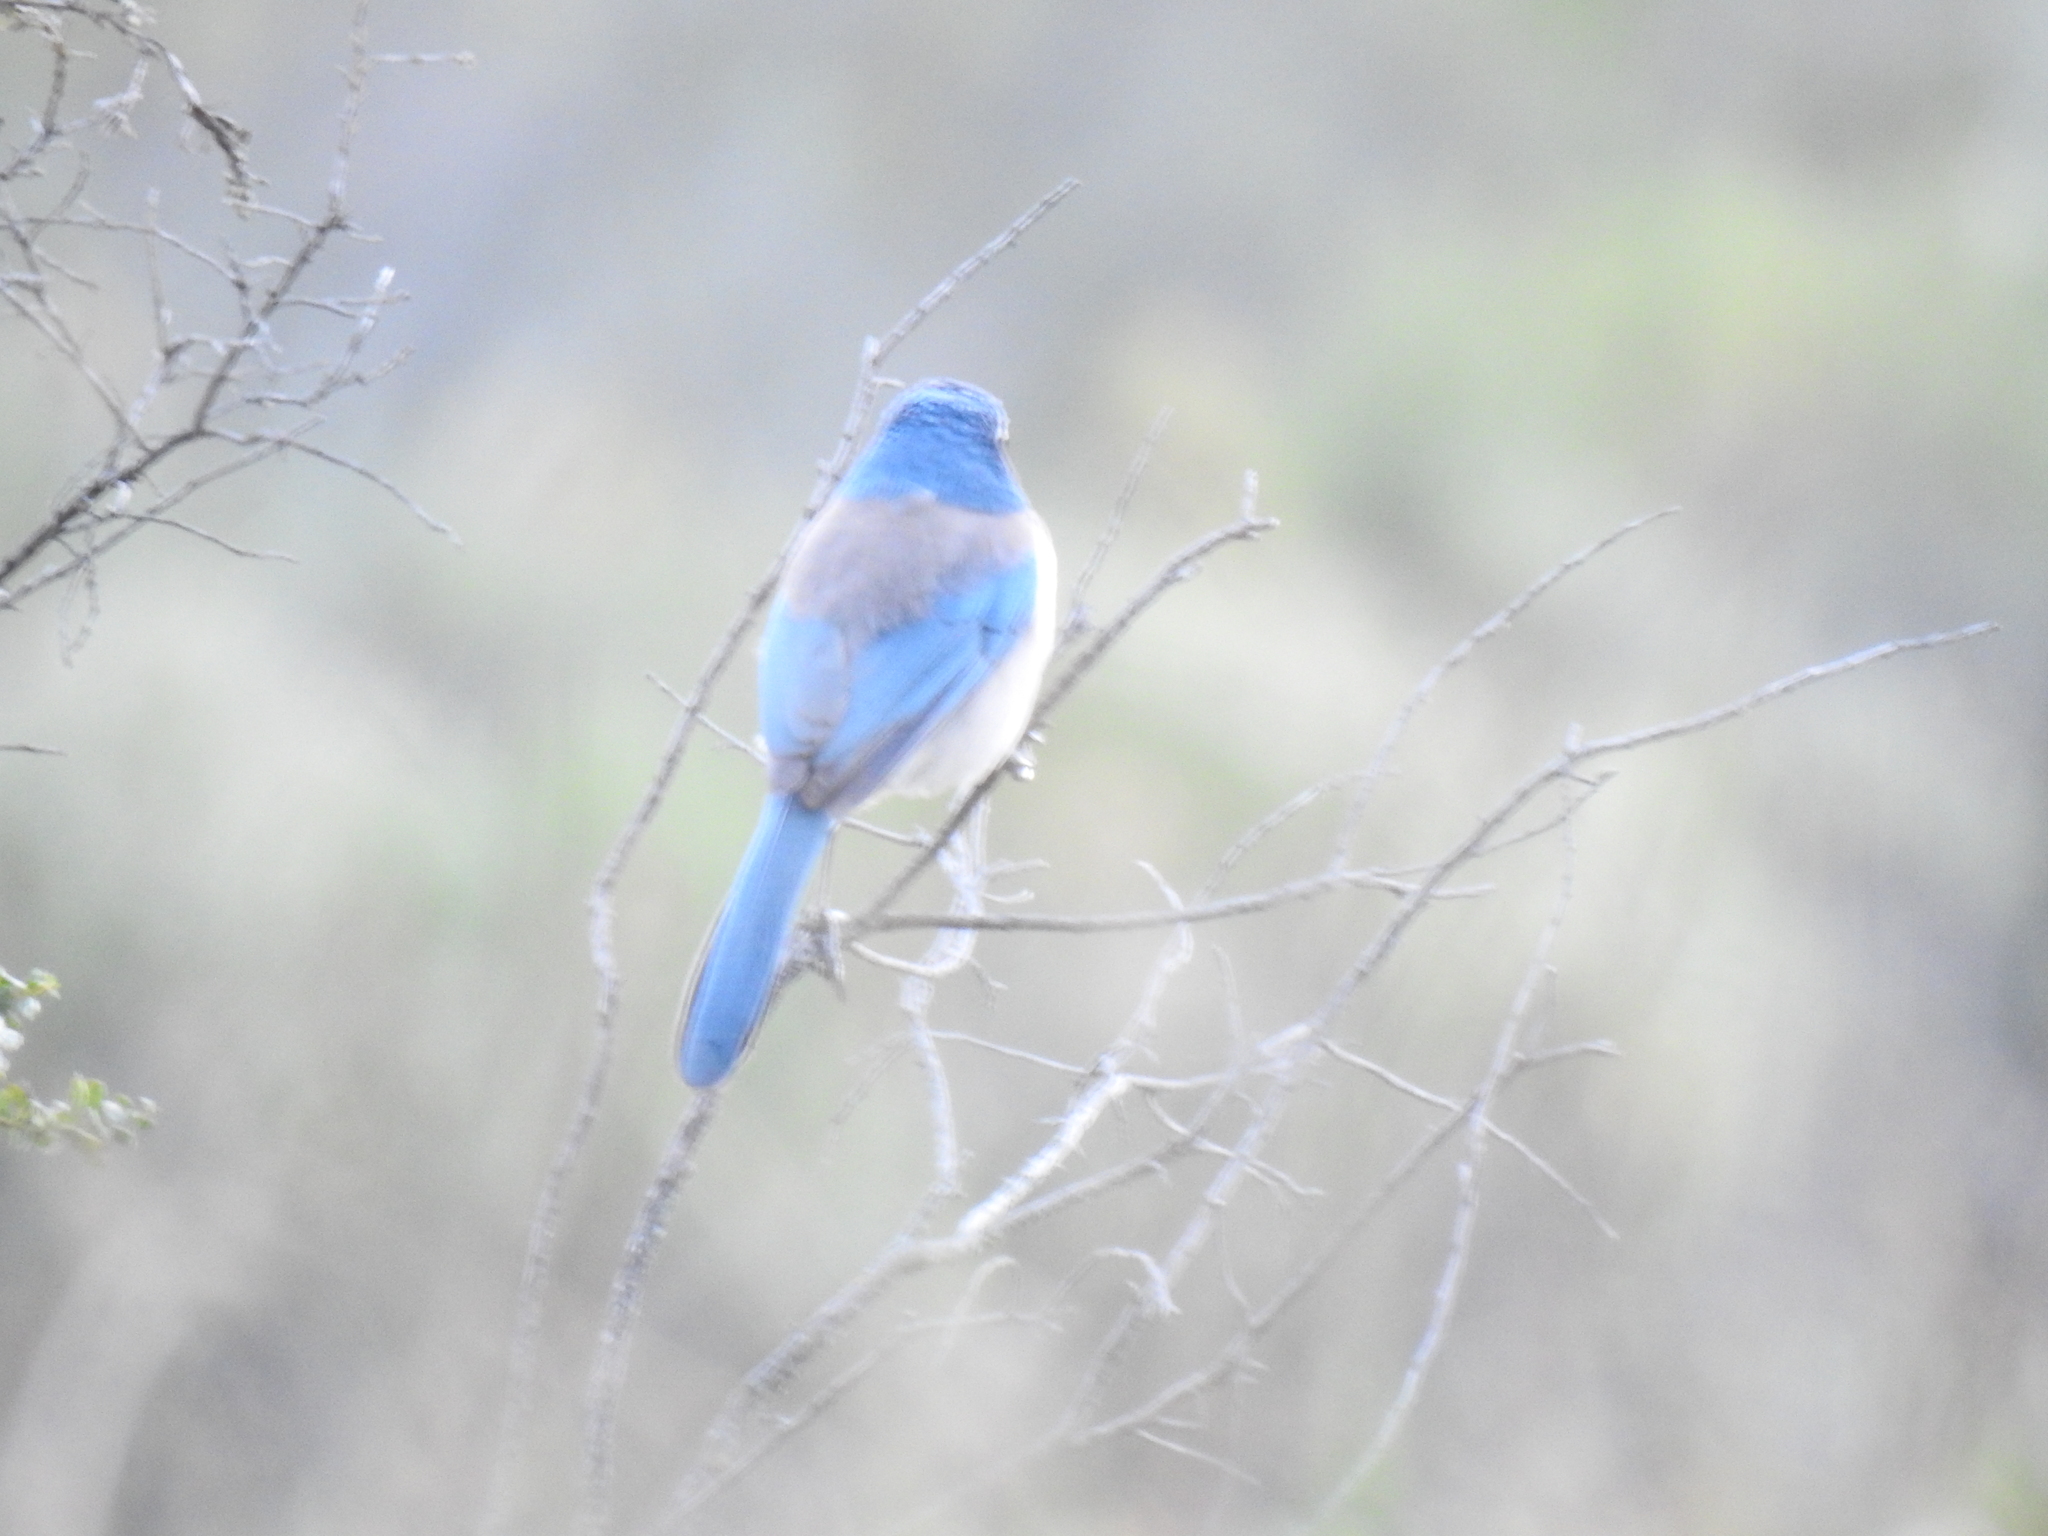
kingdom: Animalia
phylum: Chordata
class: Aves
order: Passeriformes
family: Corvidae
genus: Aphelocoma
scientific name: Aphelocoma californica
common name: California scrub-jay
